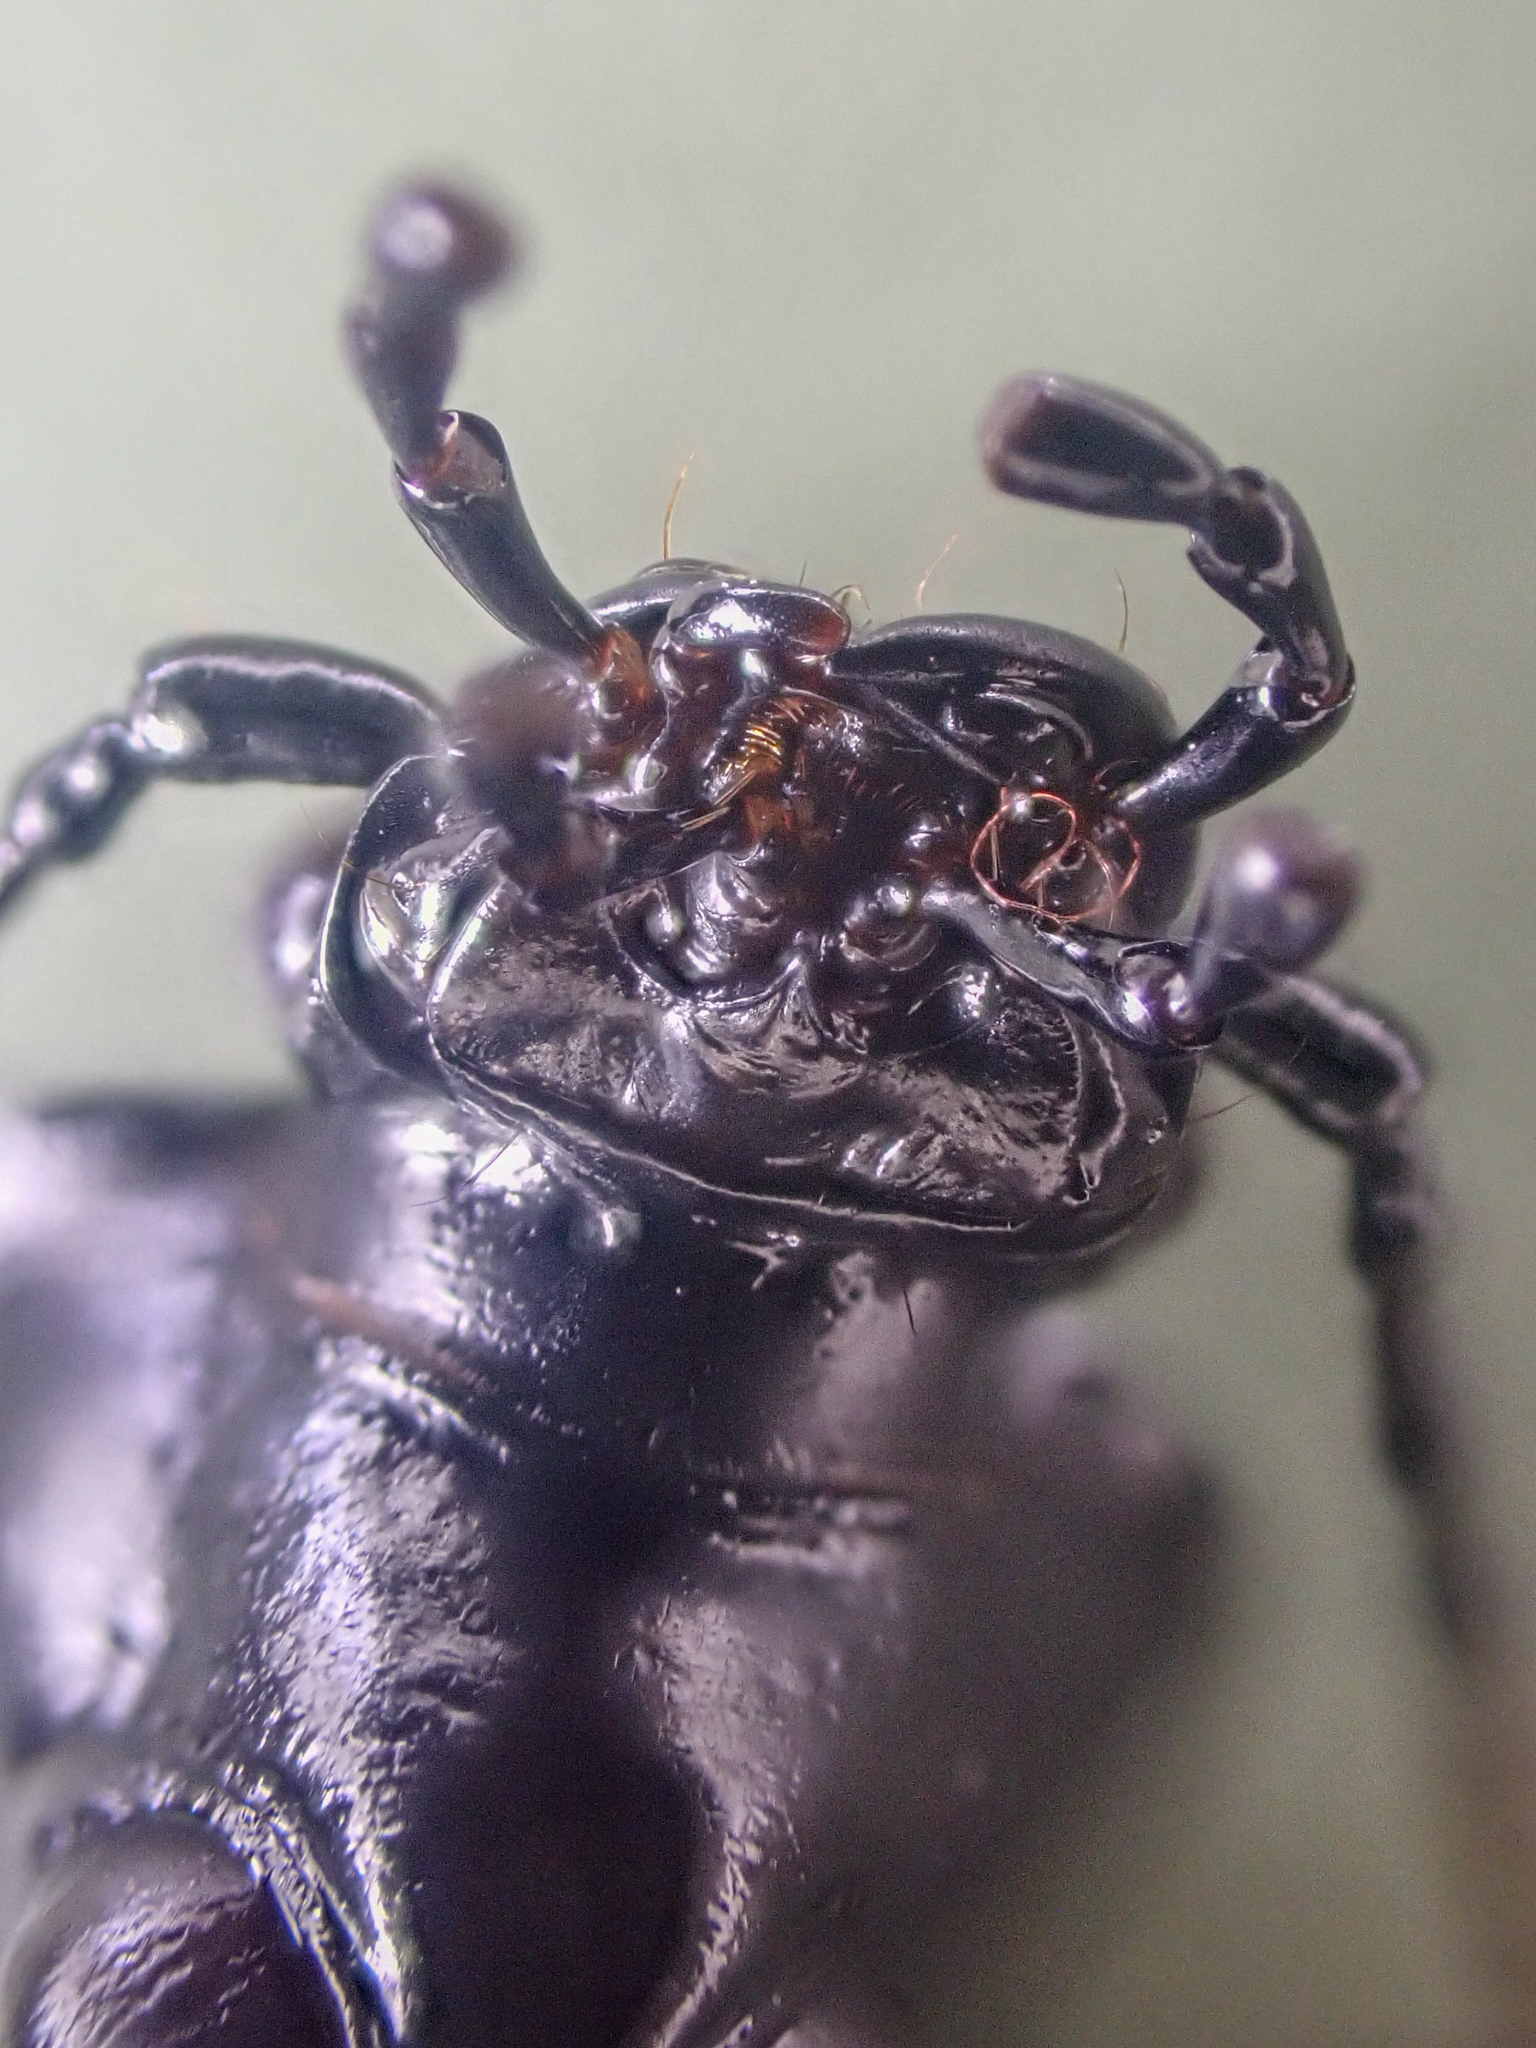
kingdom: Animalia
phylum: Arthropoda
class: Insecta
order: Coleoptera
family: Carabidae
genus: Carabus
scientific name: Carabus taedatus
